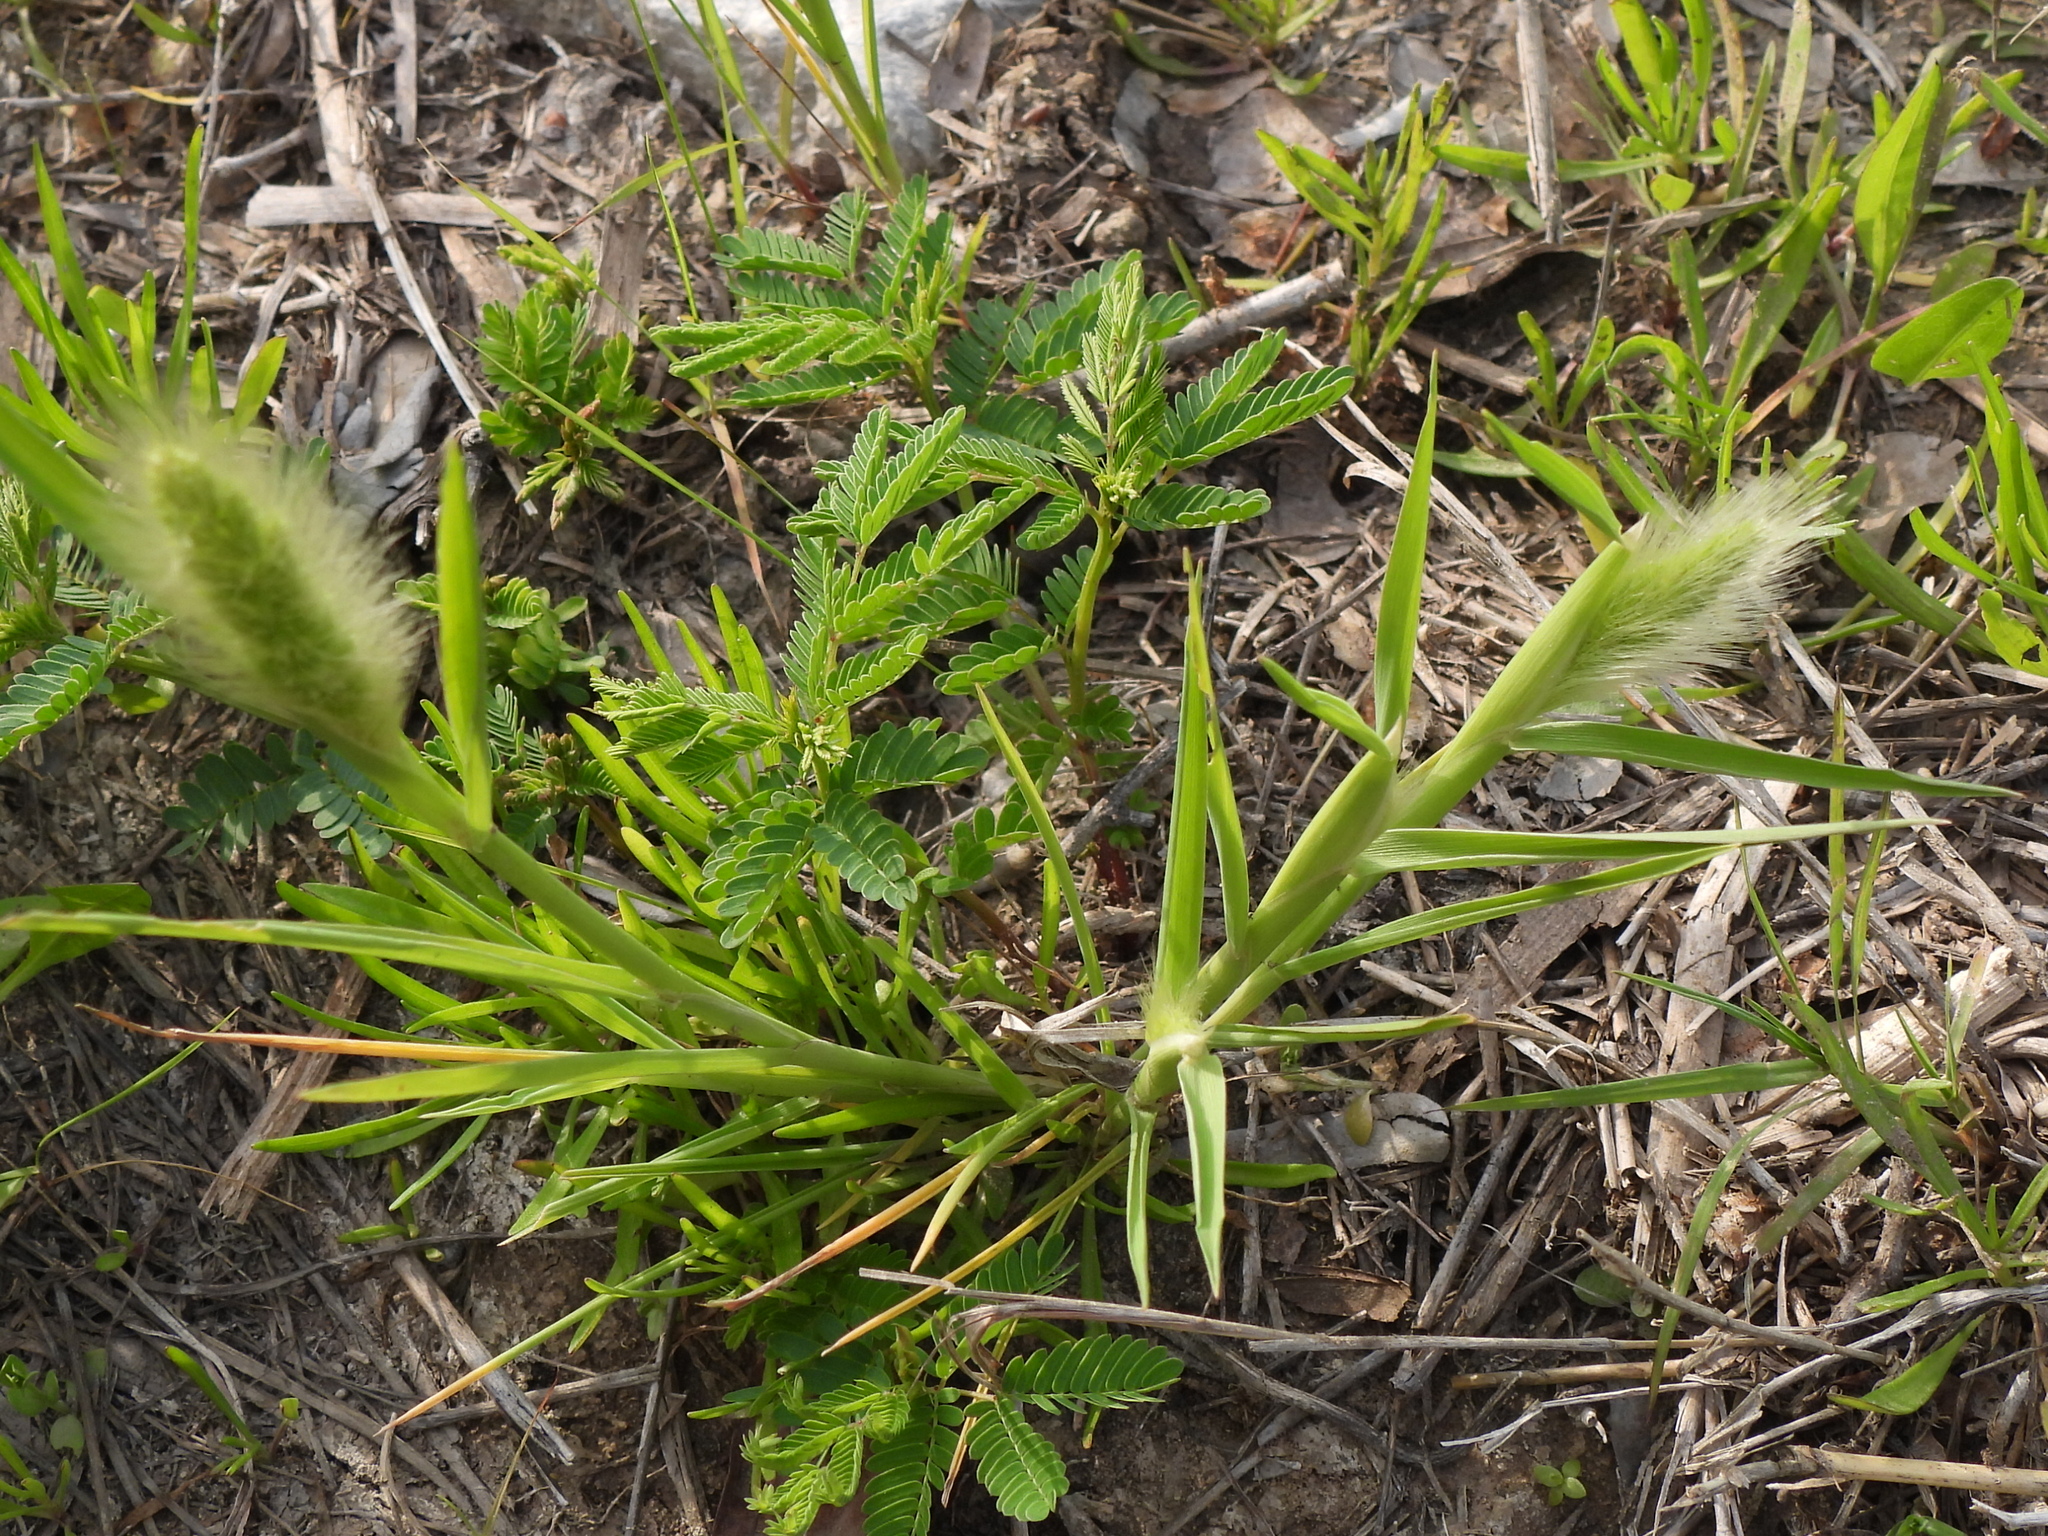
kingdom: Plantae
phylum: Tracheophyta
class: Liliopsida
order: Poales
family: Poaceae
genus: Polypogon
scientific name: Polypogon monspeliensis
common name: Annual rabbitsfoot grass
